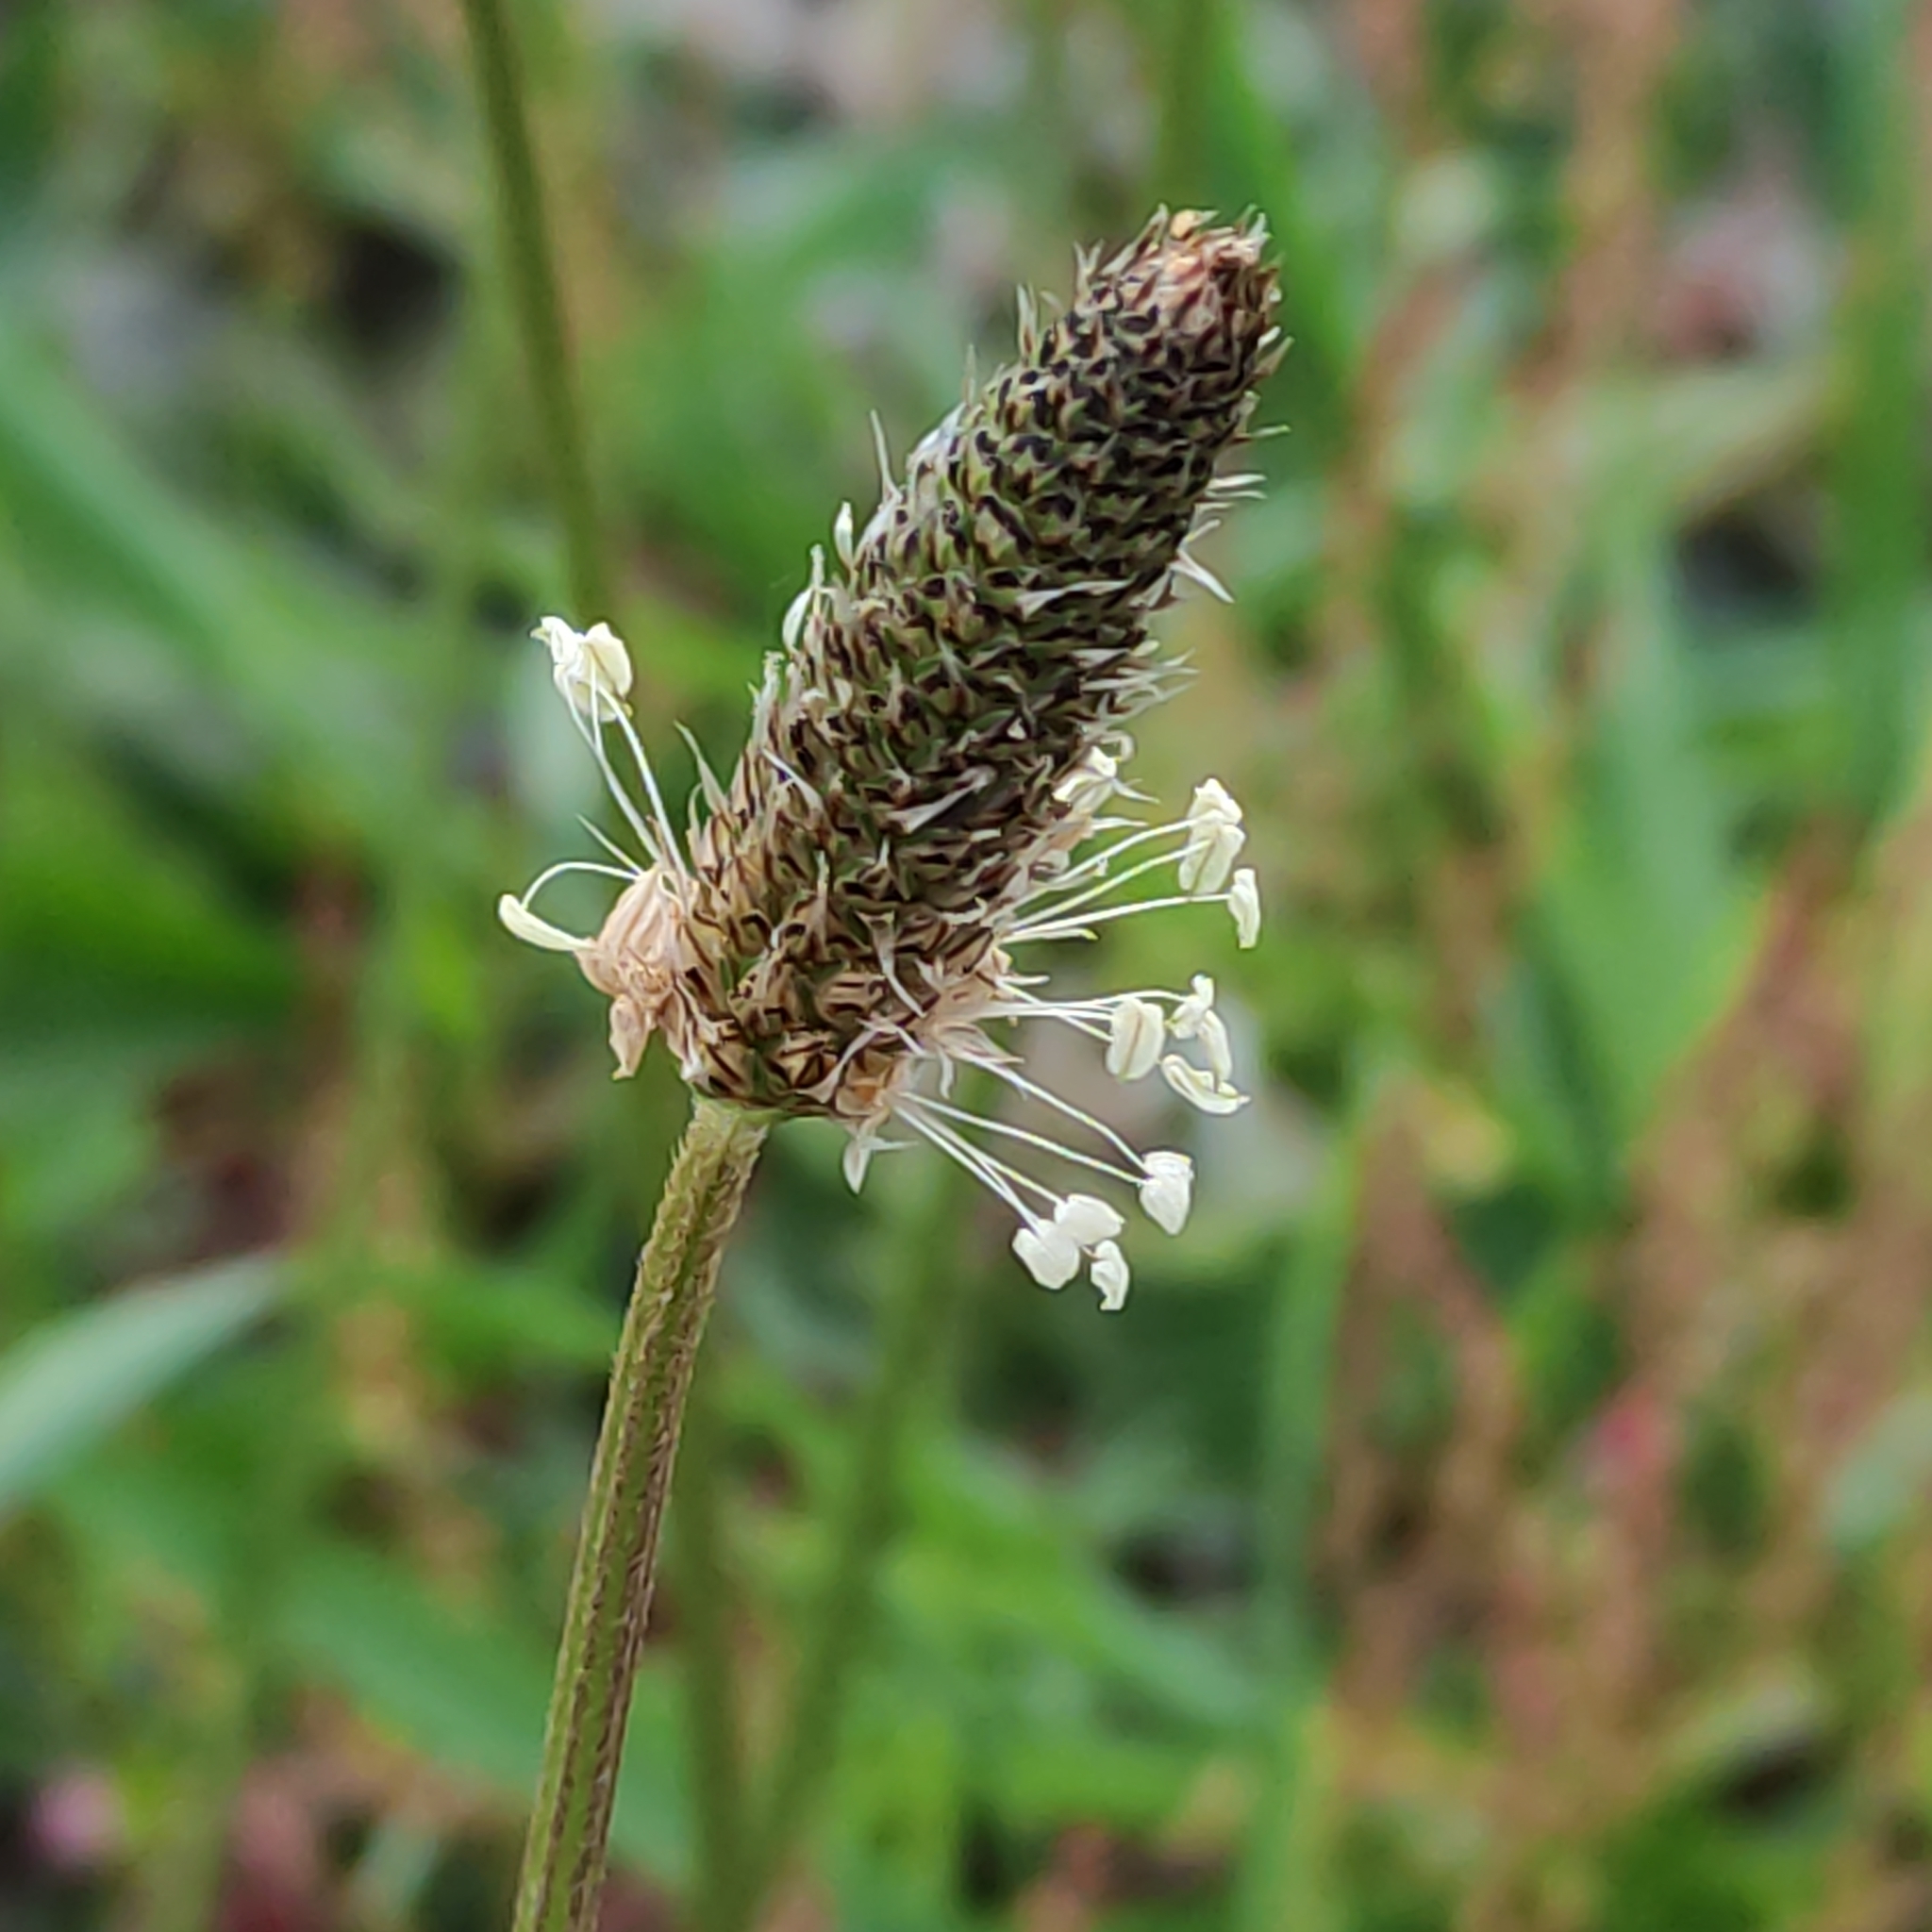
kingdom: Plantae
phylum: Tracheophyta
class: Magnoliopsida
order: Lamiales
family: Plantaginaceae
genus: Plantago
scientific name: Plantago lanceolata
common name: Ribwort plantain
